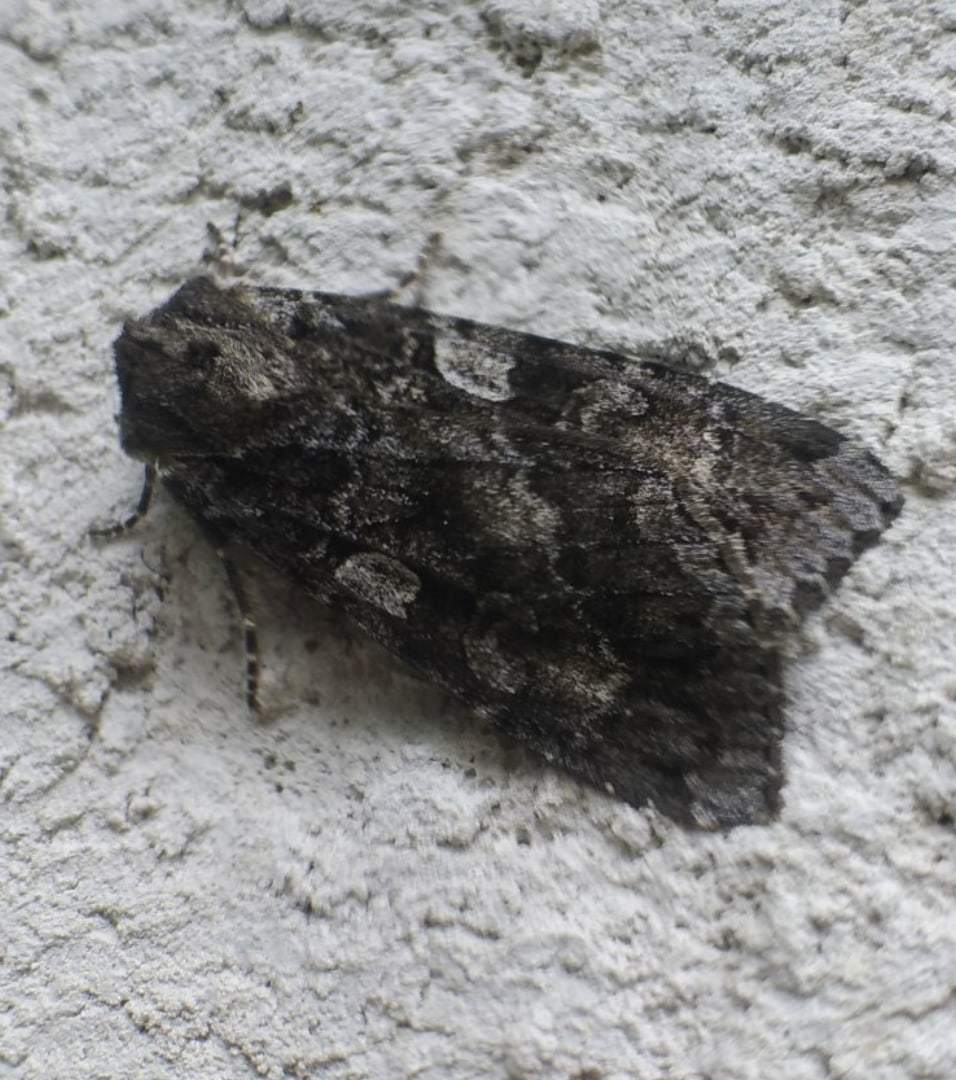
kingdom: Animalia
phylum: Arthropoda
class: Insecta
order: Lepidoptera
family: Noctuidae
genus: Eurois
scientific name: Eurois occulta
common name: Great brocade
